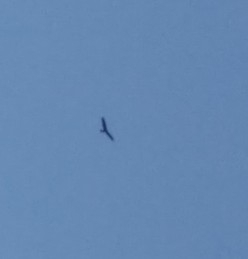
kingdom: Animalia
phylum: Chordata
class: Aves
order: Accipitriformes
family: Accipitridae
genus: Circus
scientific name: Circus aeruginosus
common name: Western marsh harrier
